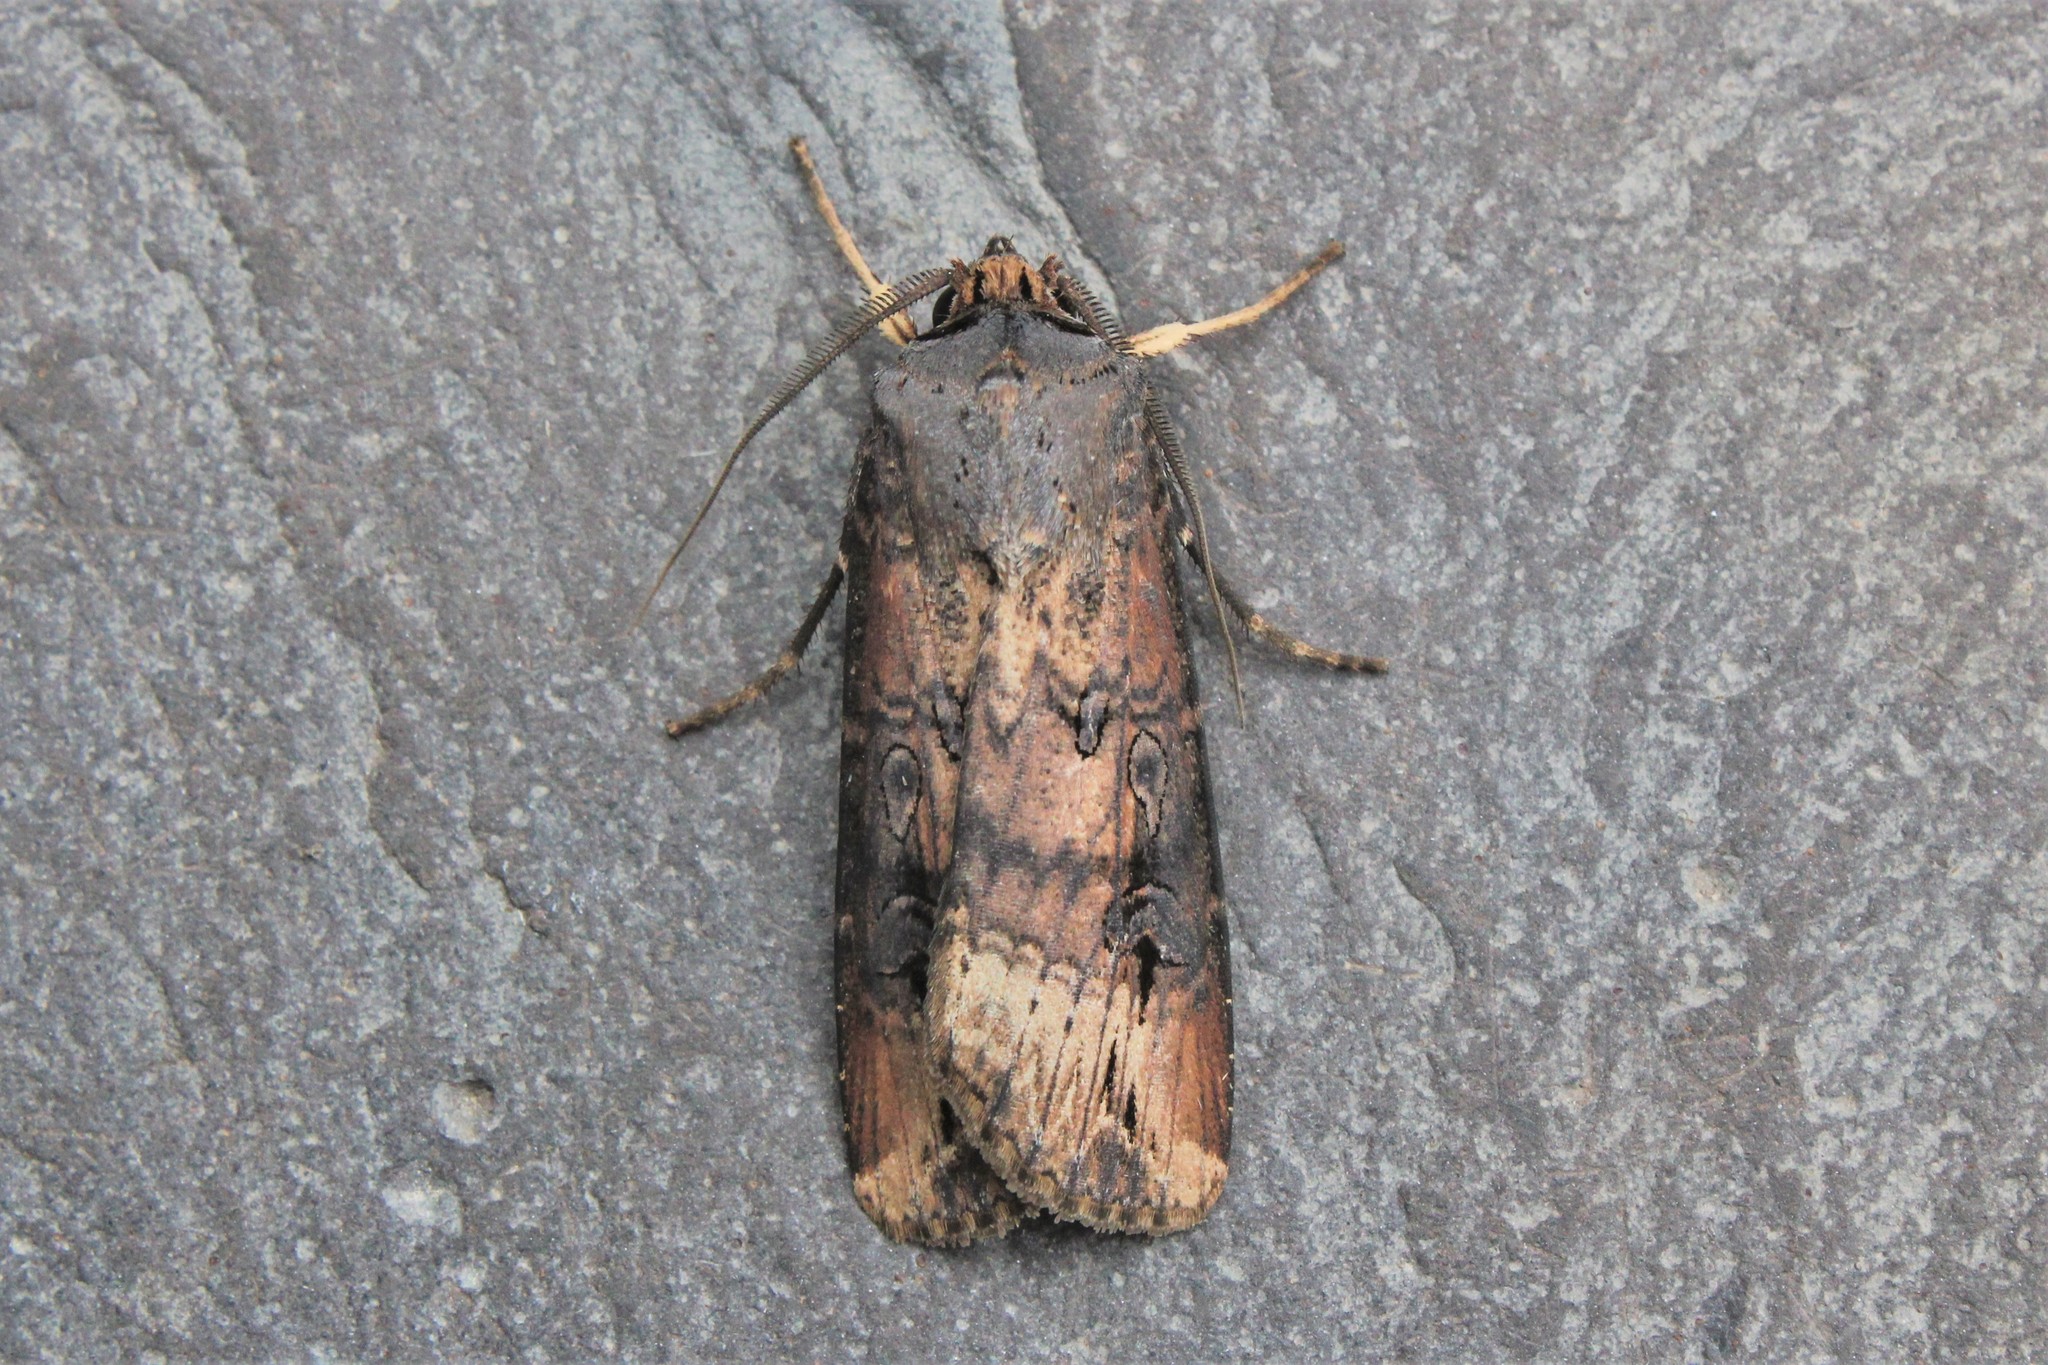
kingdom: Animalia
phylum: Arthropoda
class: Insecta
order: Lepidoptera
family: Noctuidae
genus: Agrotis
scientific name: Agrotis ipsilon
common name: Dark sword-grass
